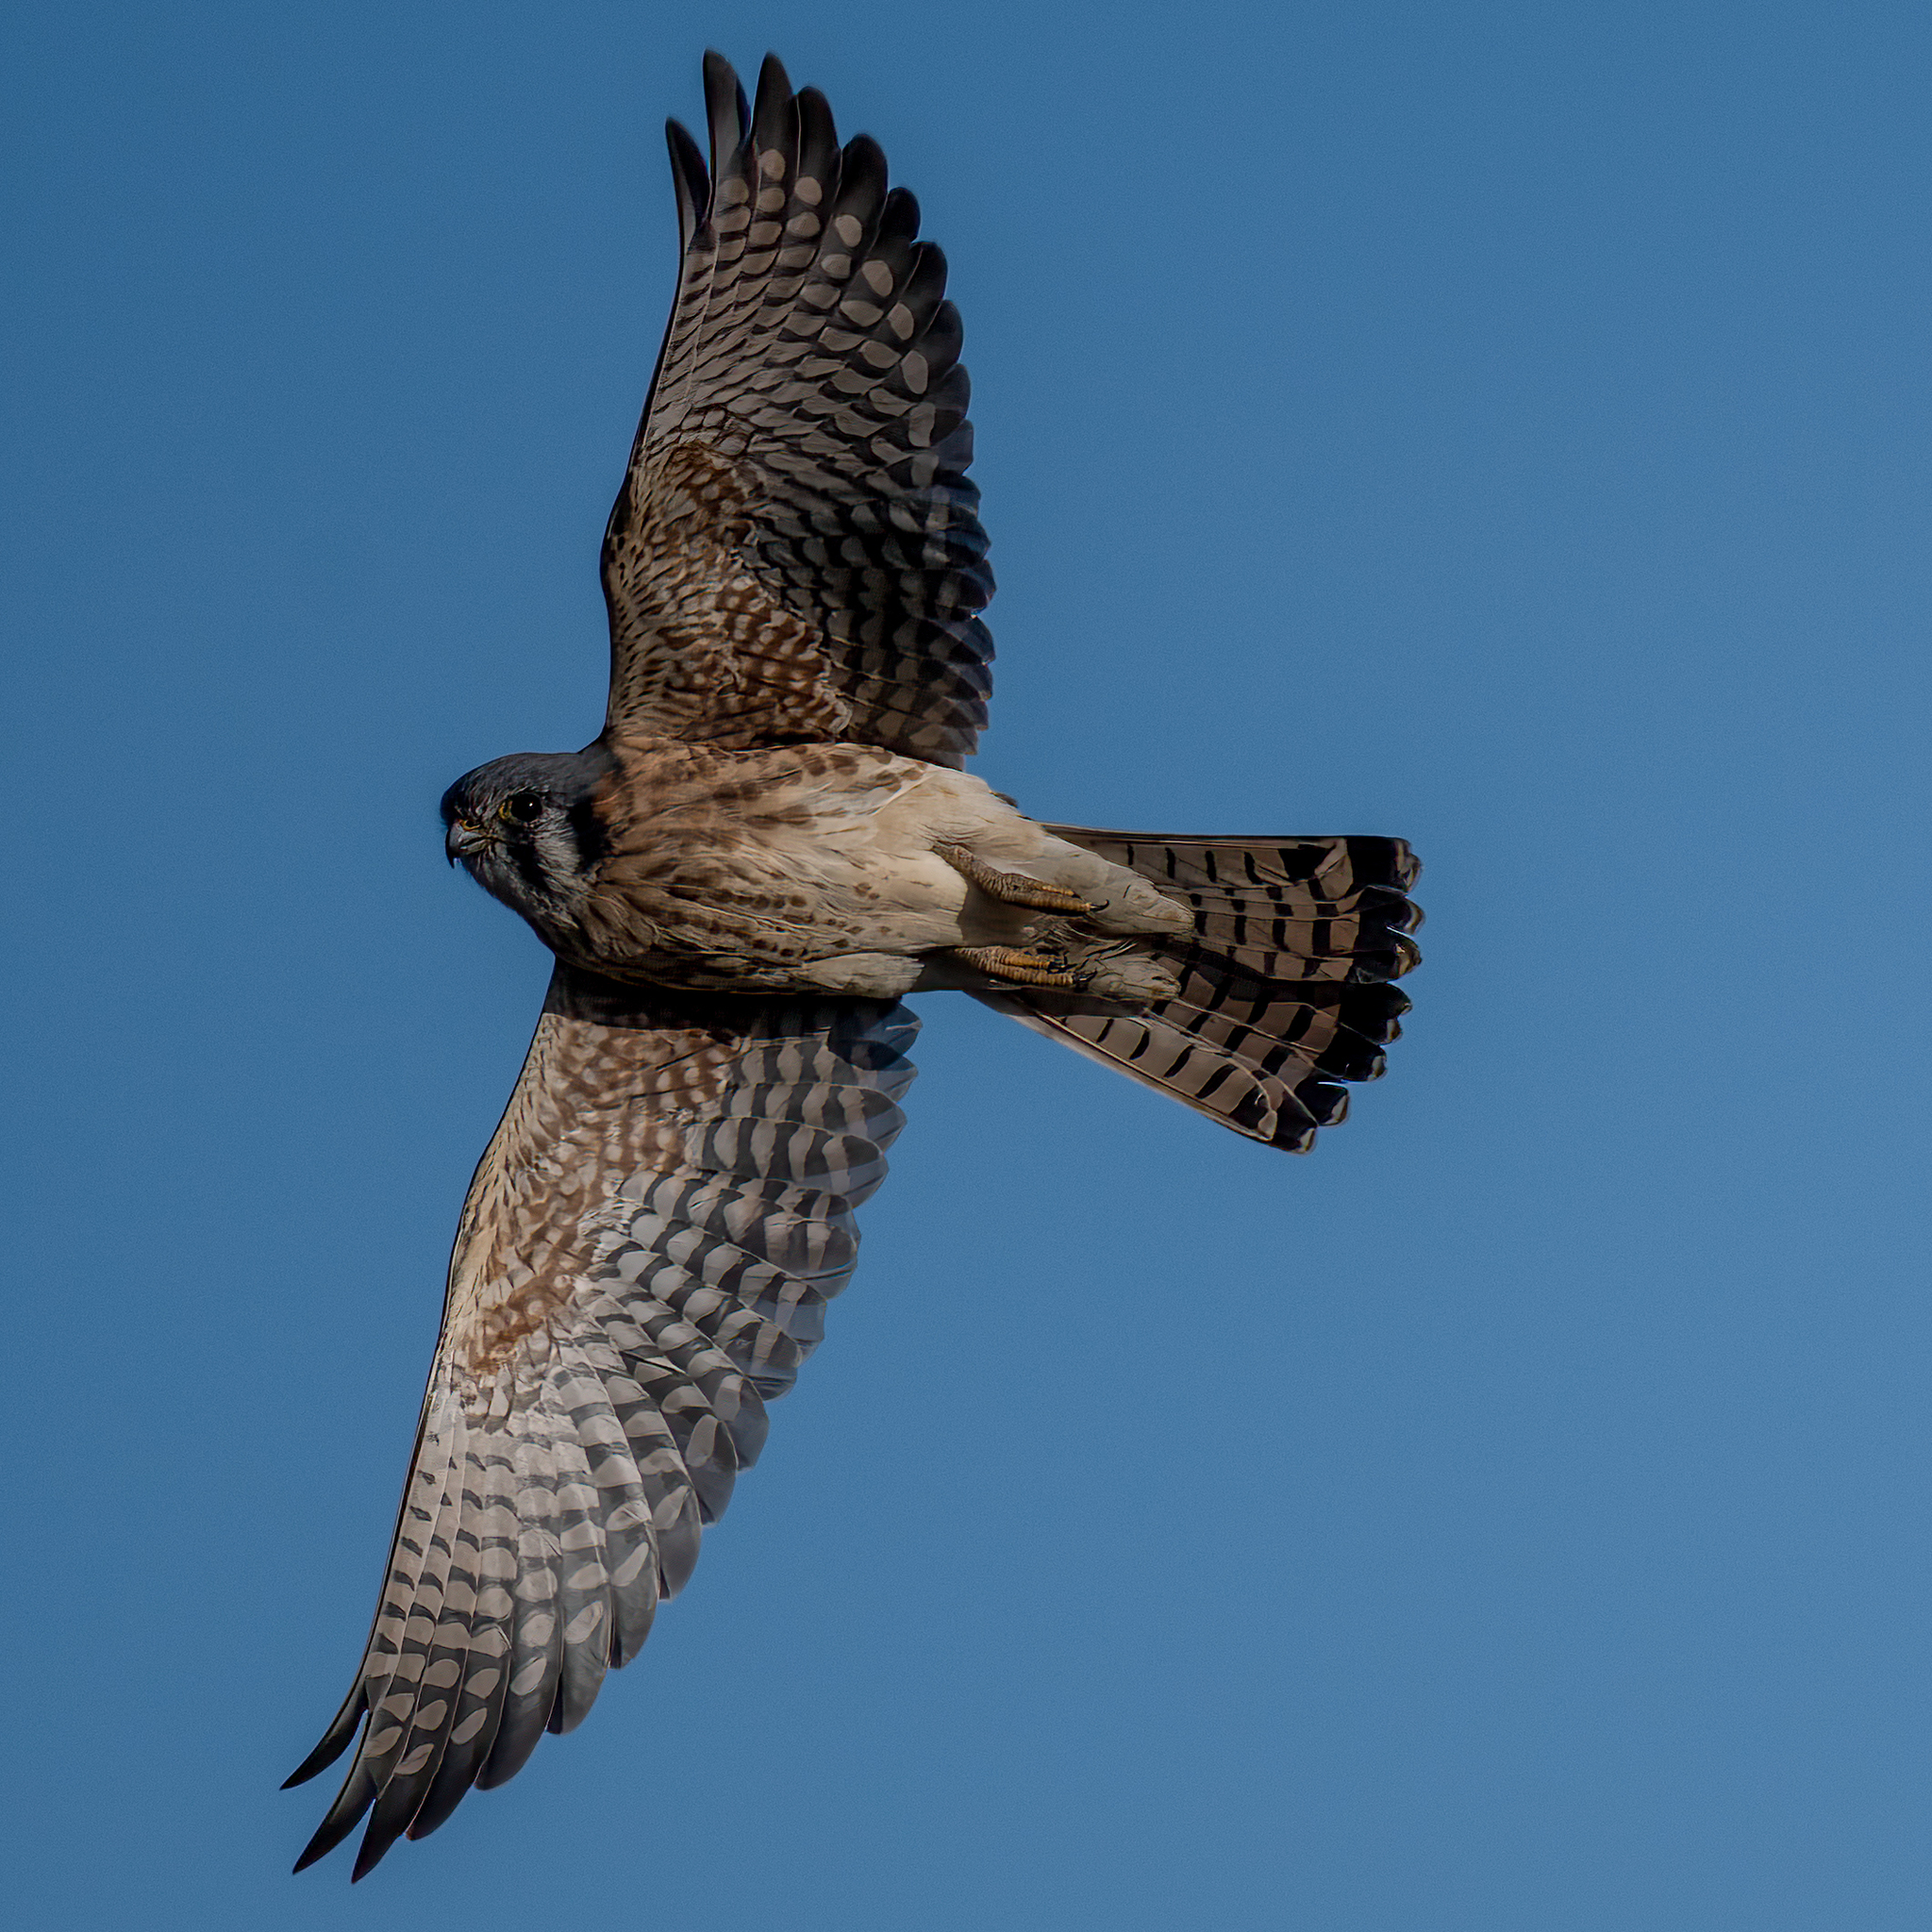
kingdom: Animalia
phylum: Chordata
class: Aves
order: Falconiformes
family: Falconidae
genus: Falco
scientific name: Falco sparverius
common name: American kestrel
